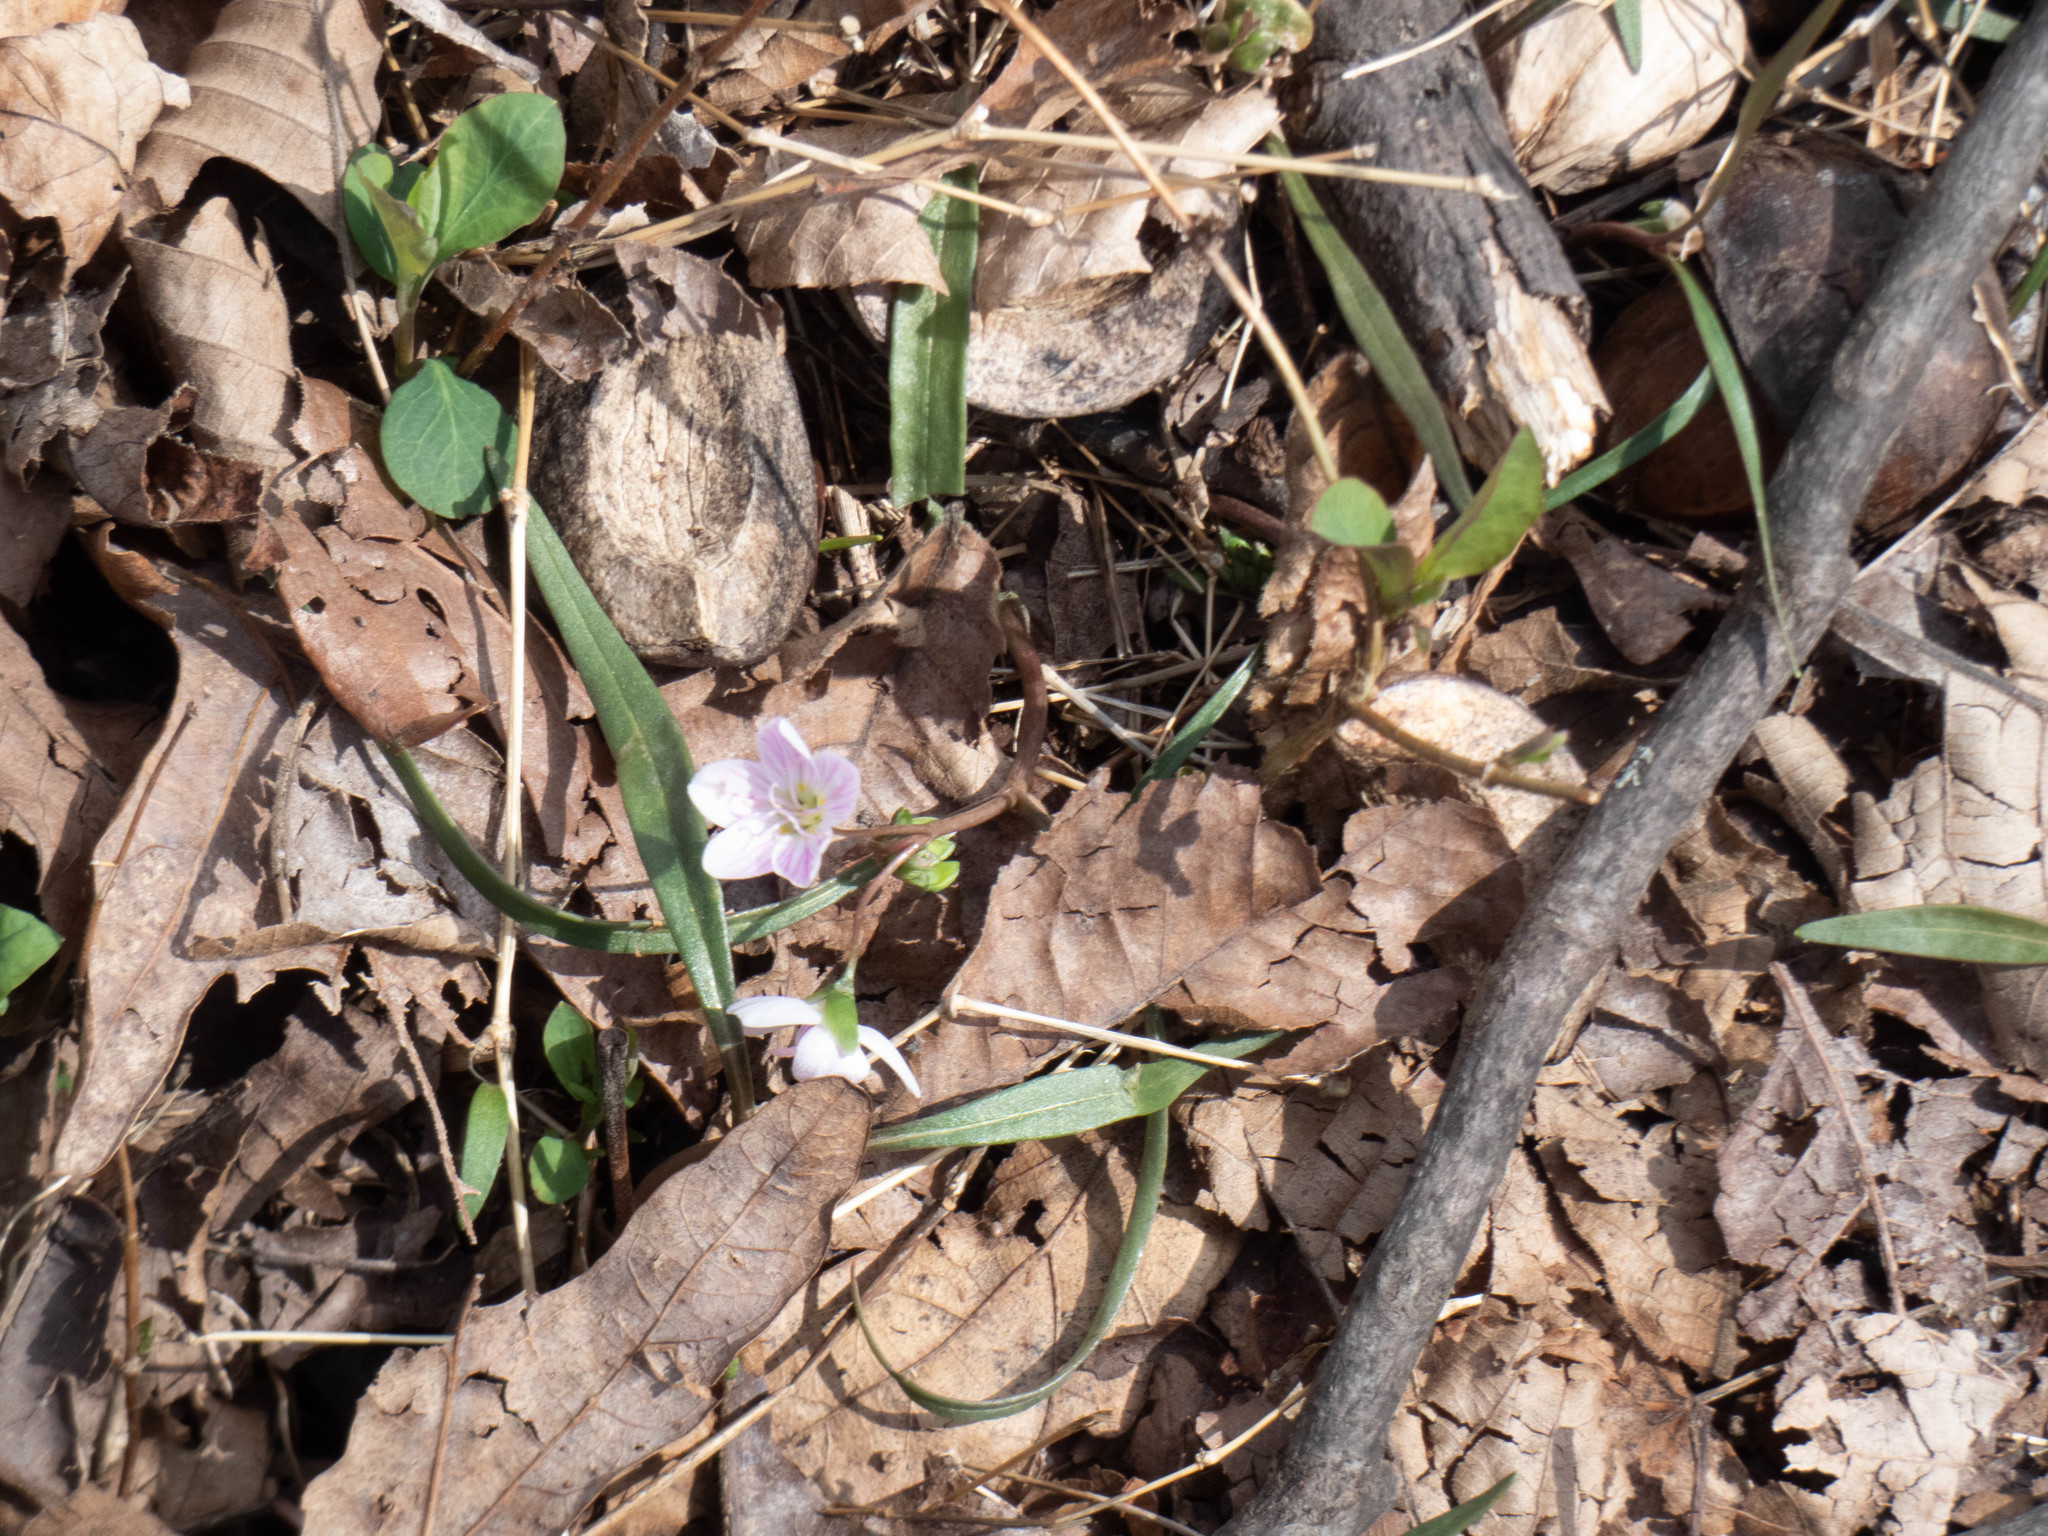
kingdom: Plantae
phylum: Tracheophyta
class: Magnoliopsida
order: Caryophyllales
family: Montiaceae
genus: Claytonia
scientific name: Claytonia virginica
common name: Virginia springbeauty
